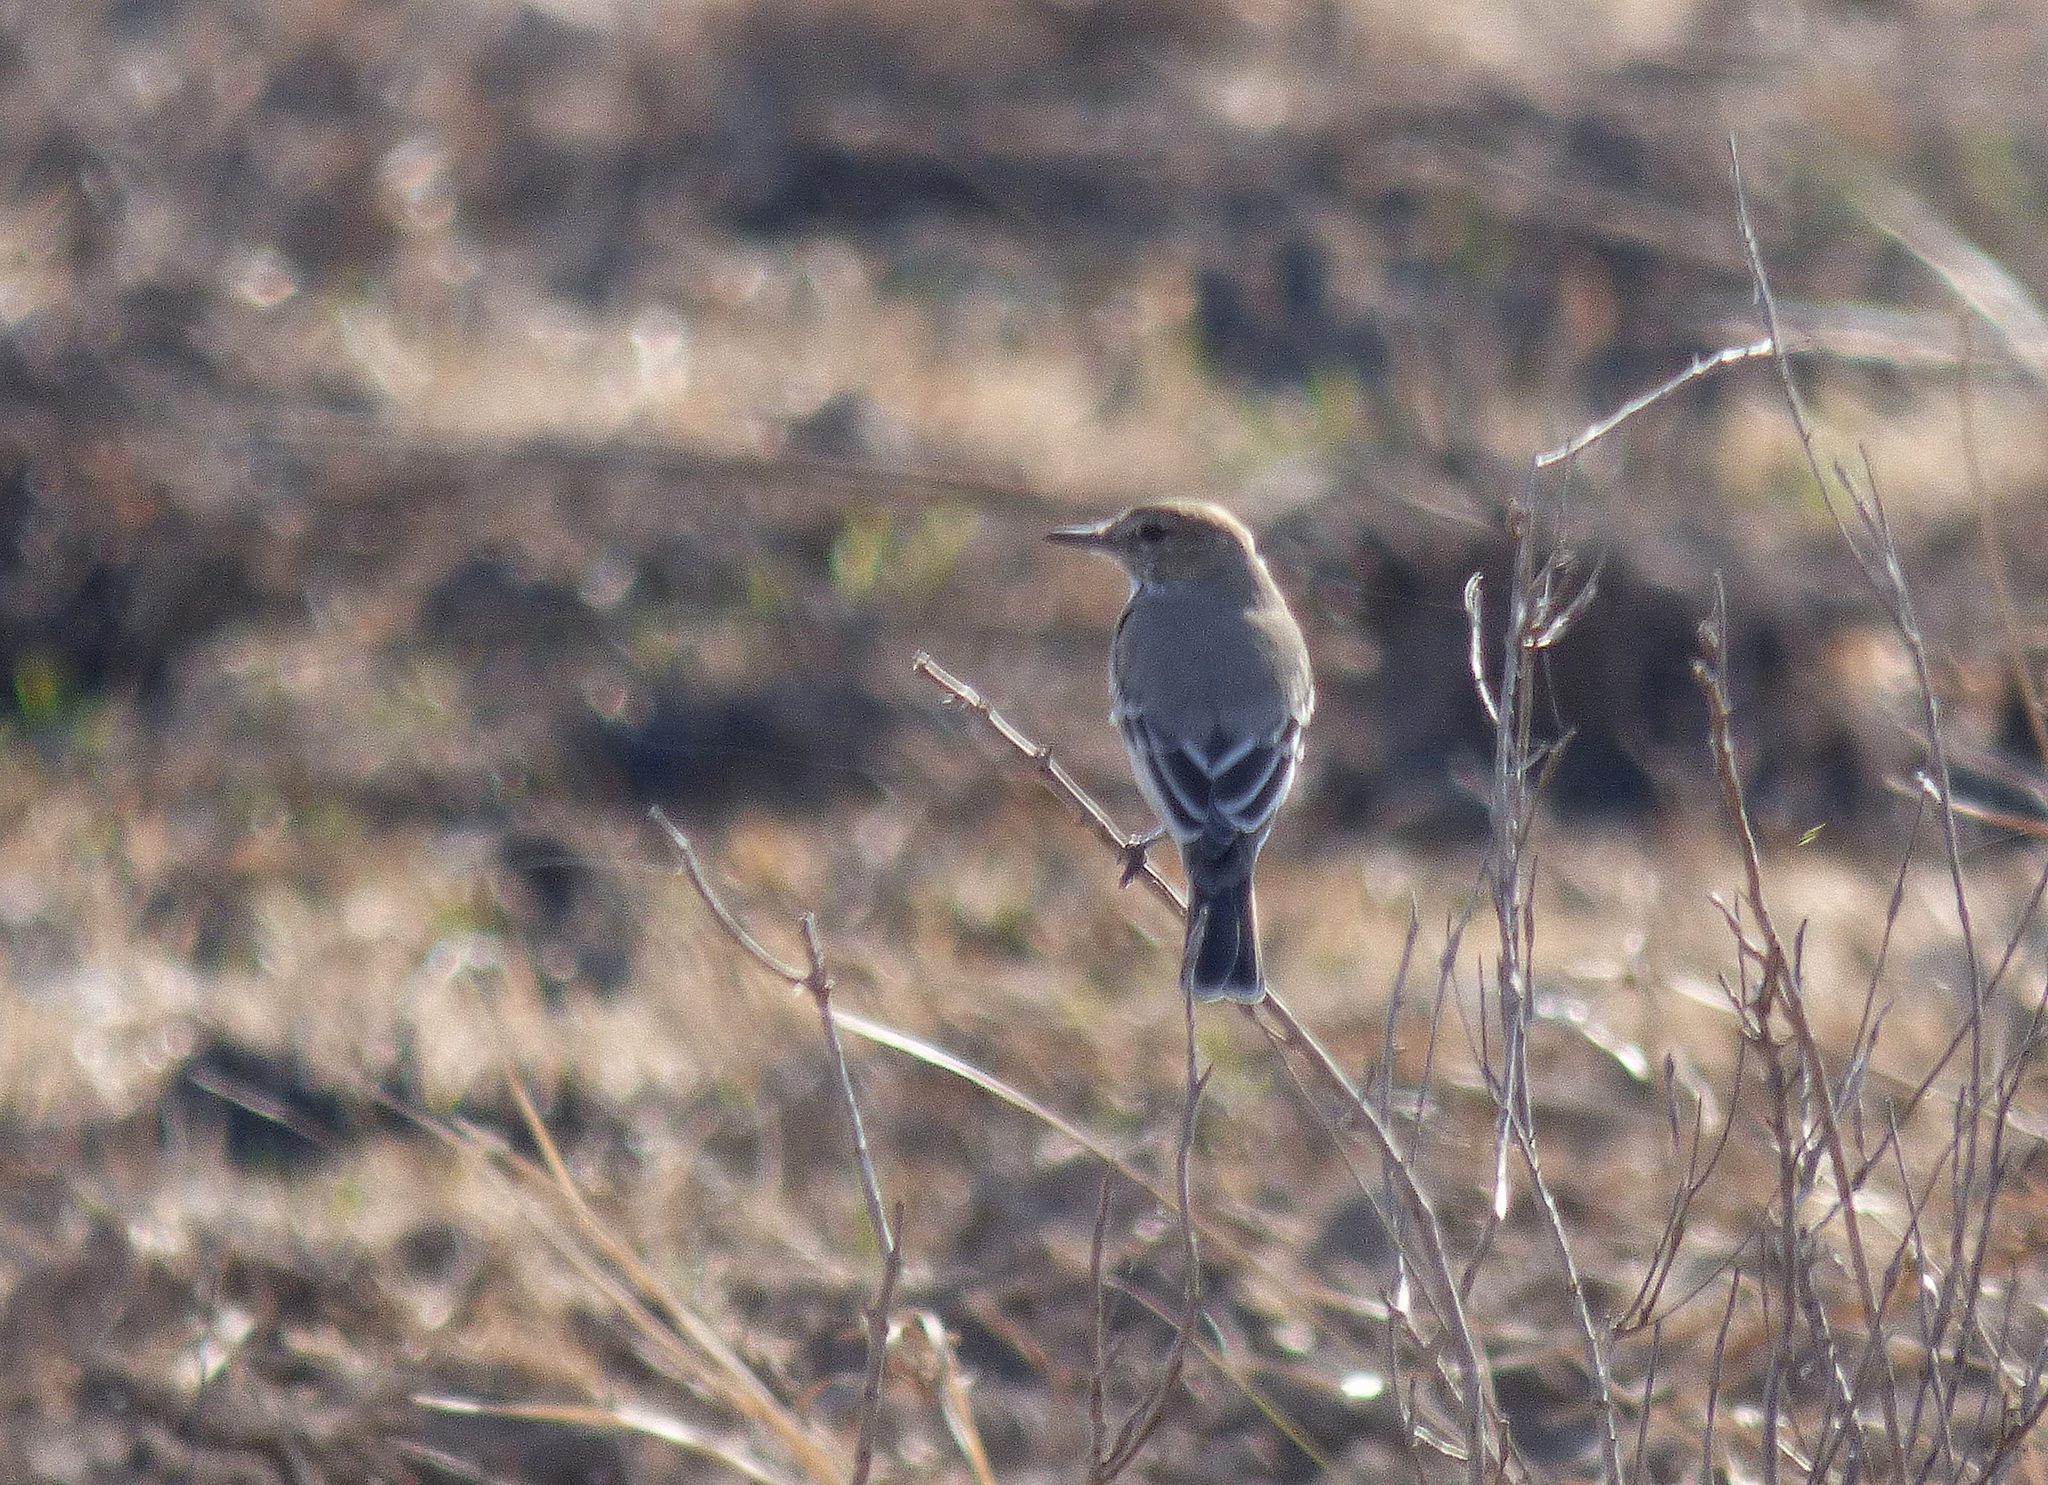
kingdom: Animalia
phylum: Chordata
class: Aves
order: Passeriformes
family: Tyrannidae
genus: Agriornis
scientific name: Agriornis murinus
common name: Lesser shrike-tyrant
